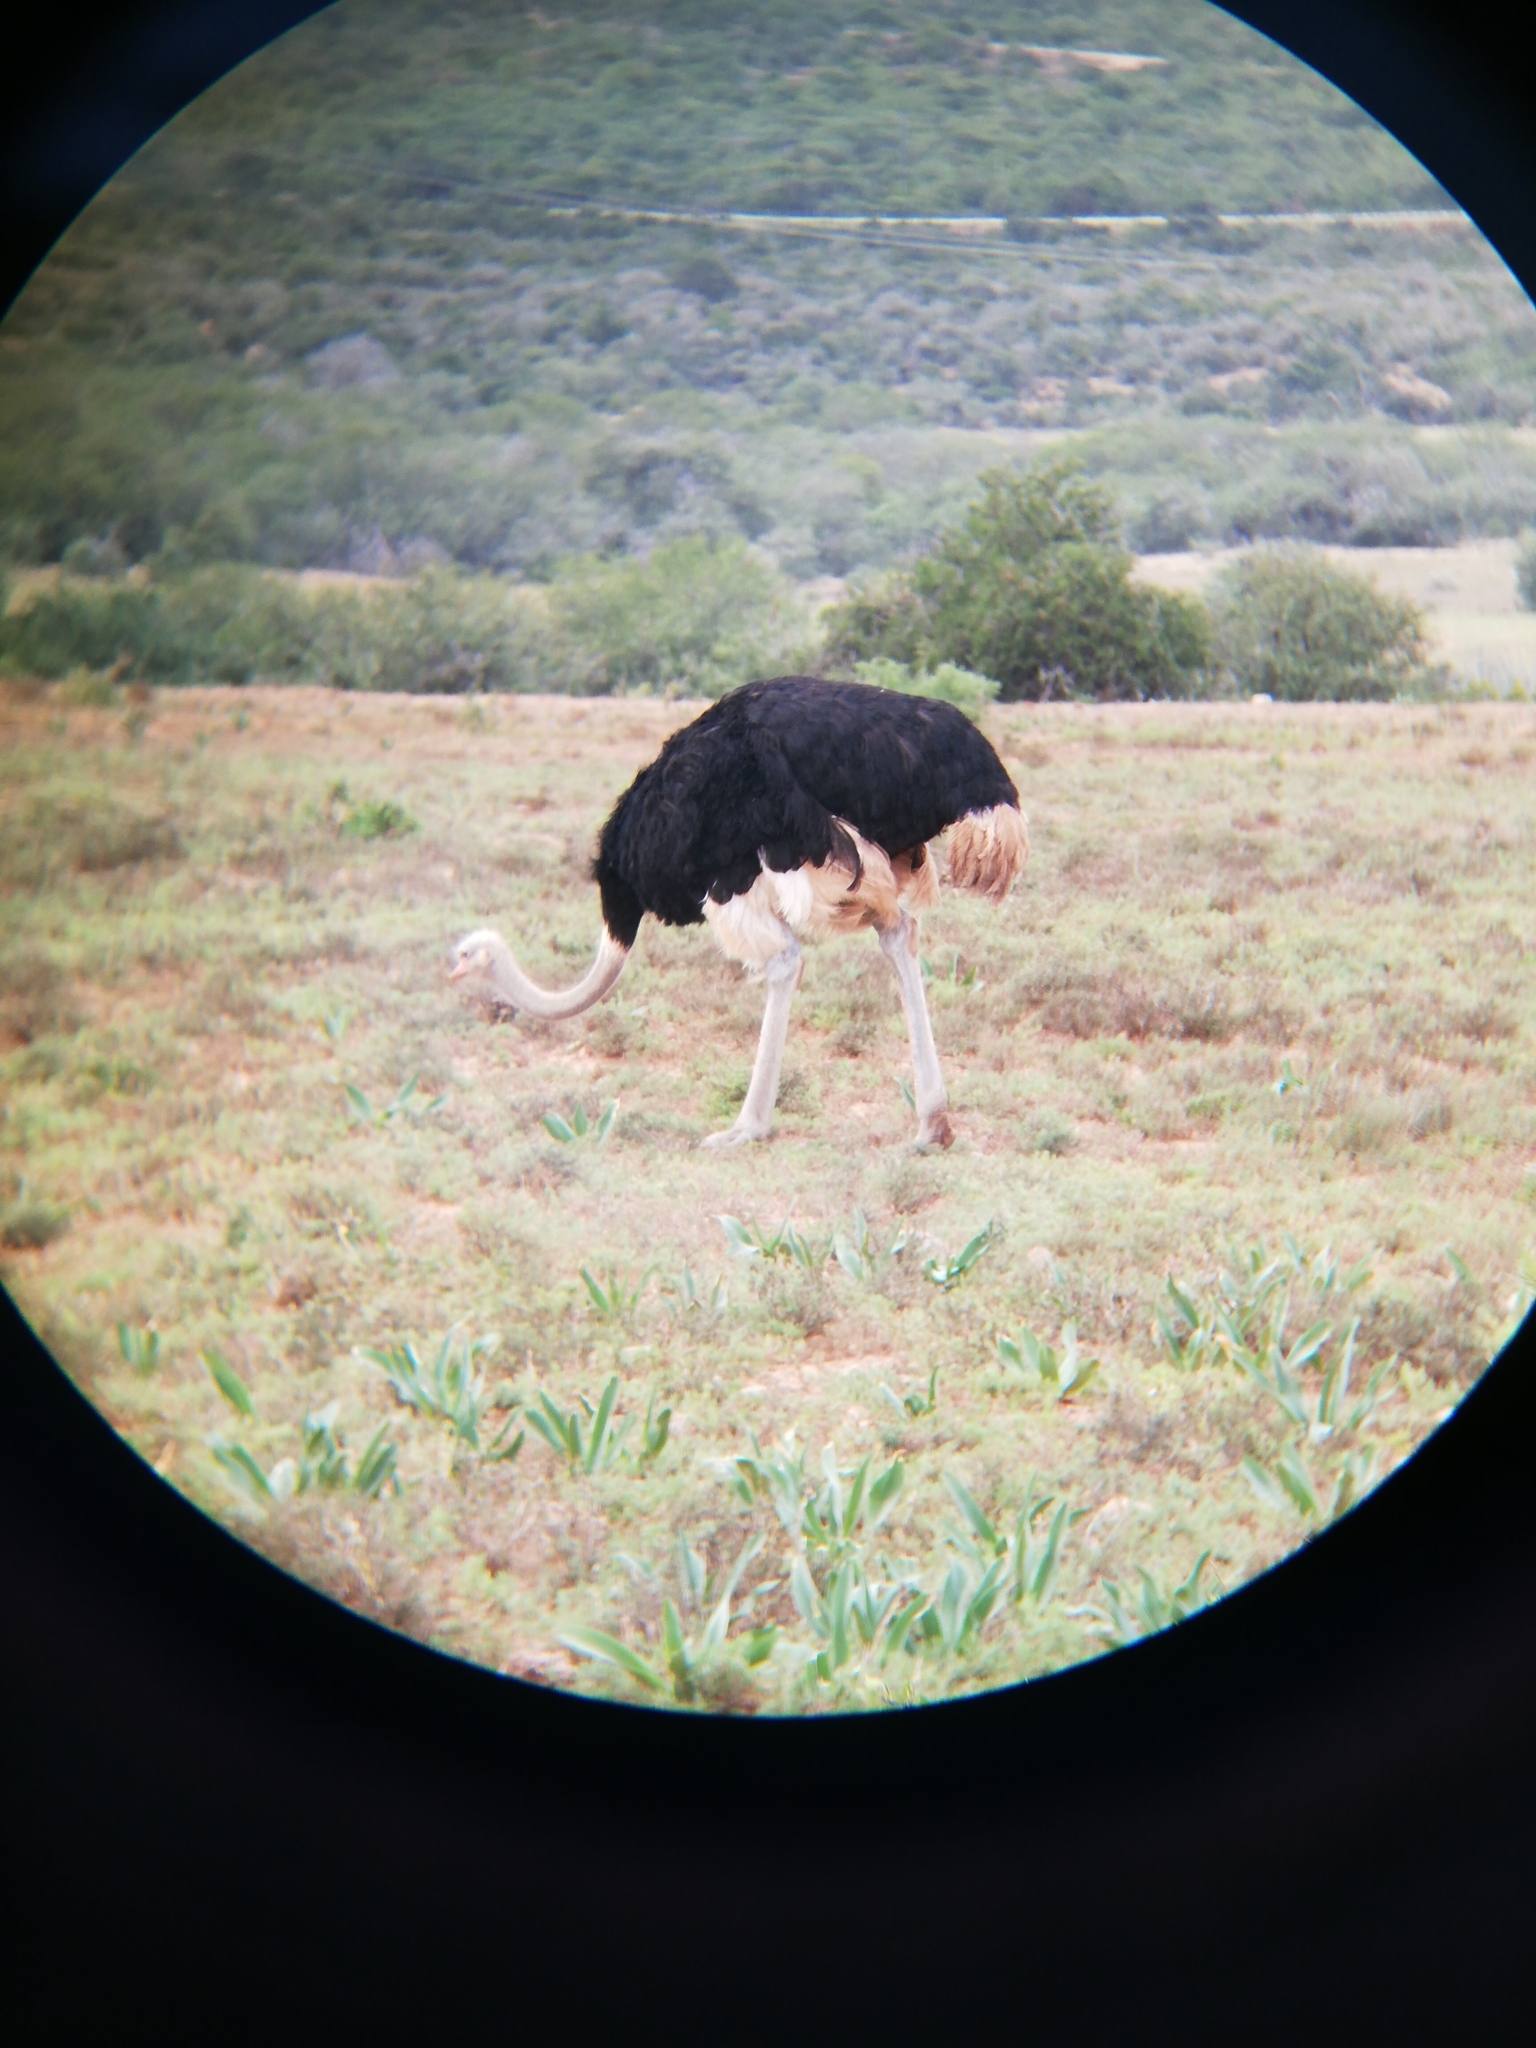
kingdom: Animalia
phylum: Chordata
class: Aves
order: Struthioniformes
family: Struthionidae
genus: Struthio
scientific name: Struthio camelus
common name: Common ostrich
